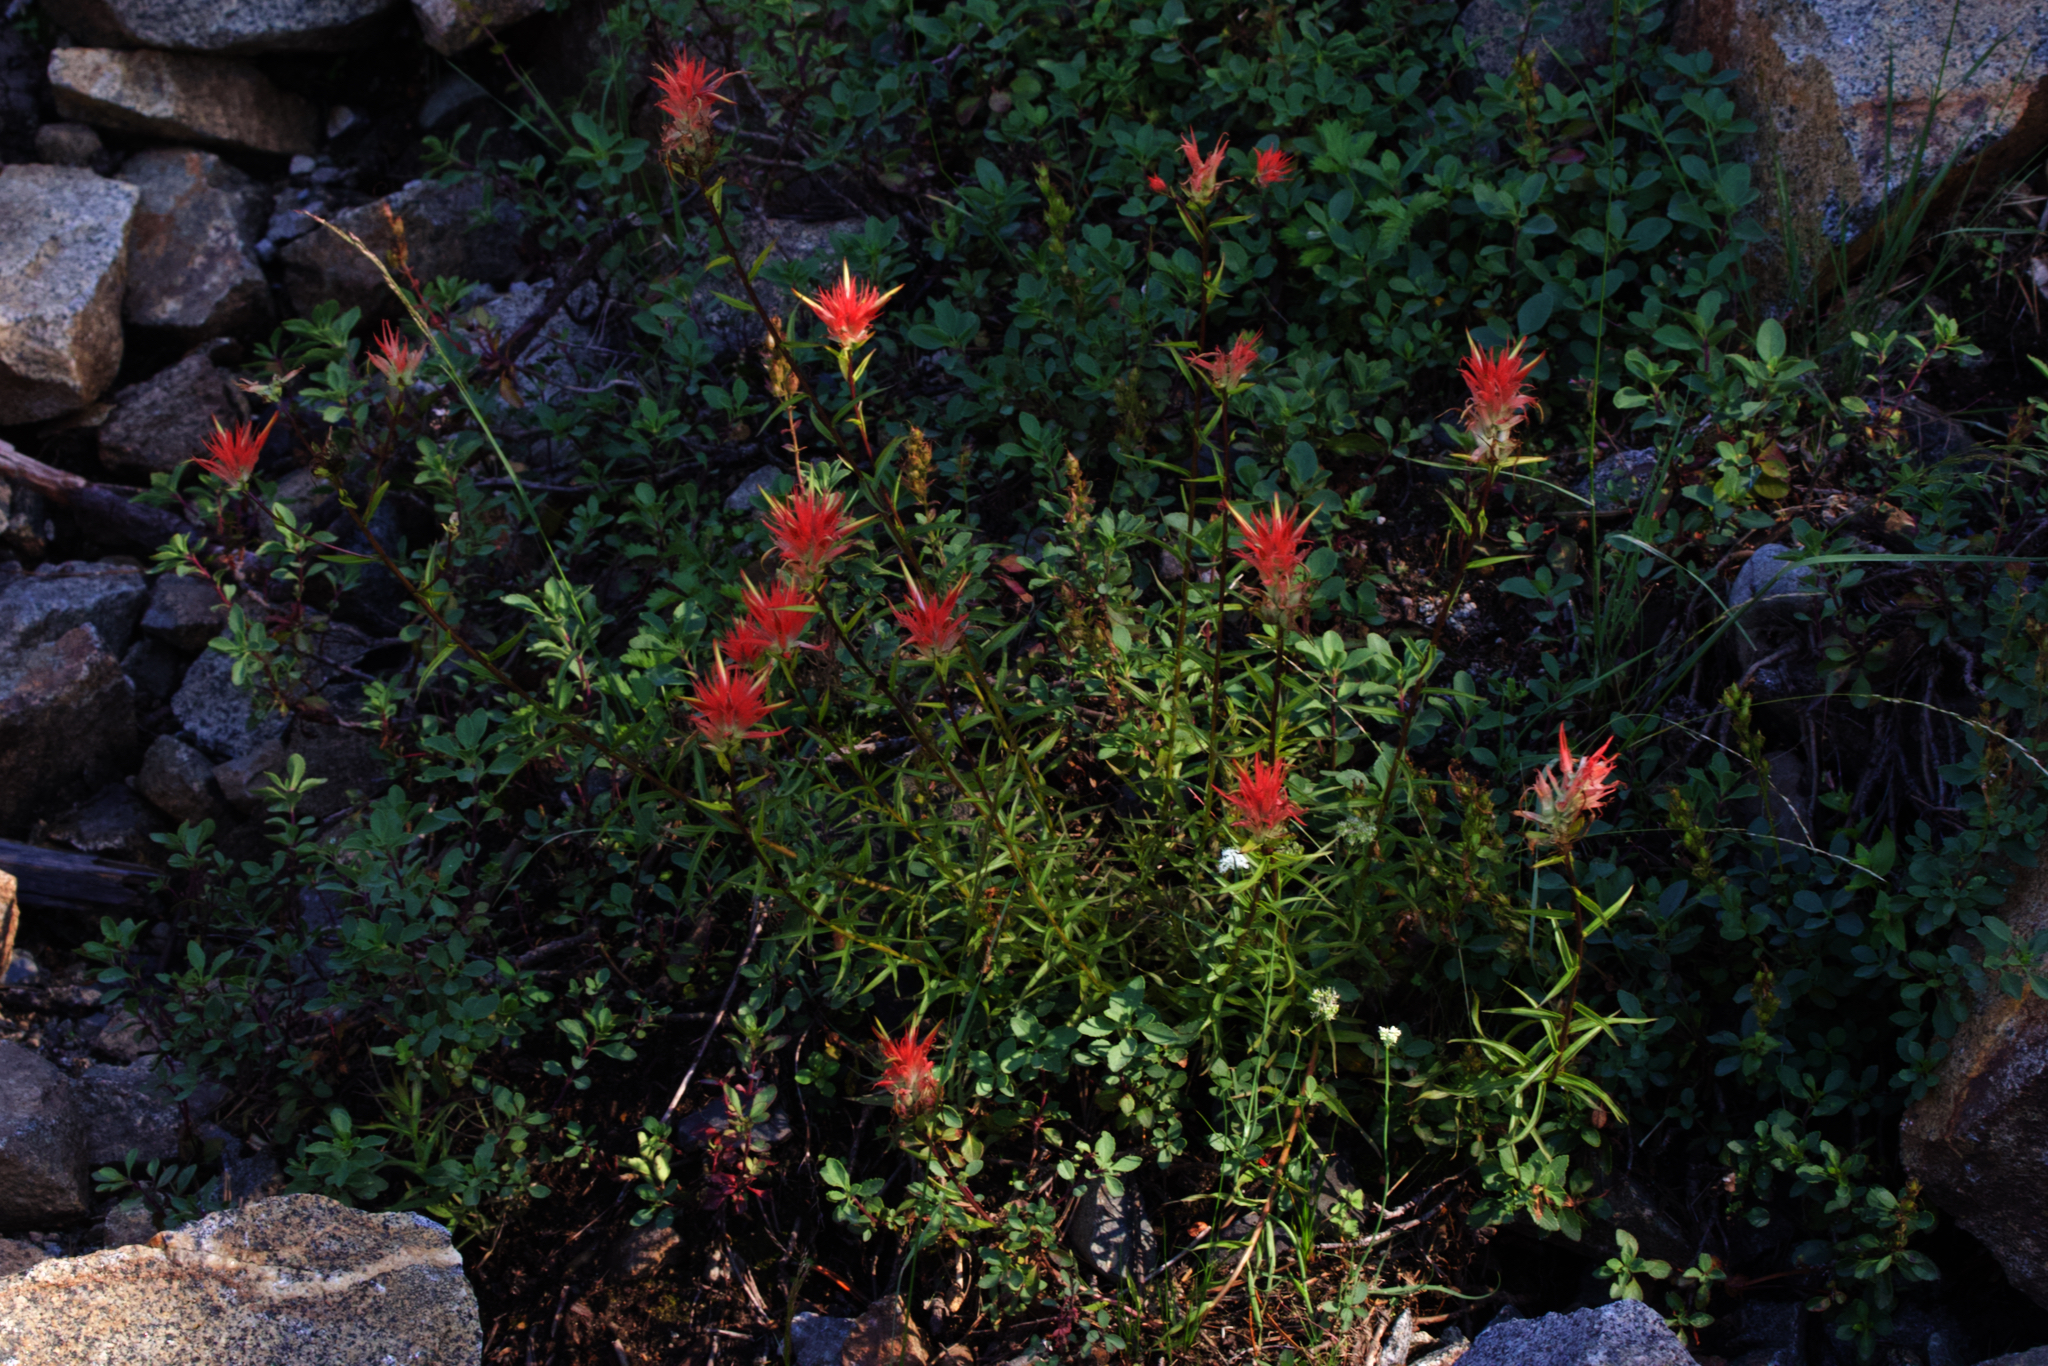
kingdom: Plantae
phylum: Tracheophyta
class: Magnoliopsida
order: Lamiales
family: Orobanchaceae
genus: Castilleja
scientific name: Castilleja miniata
